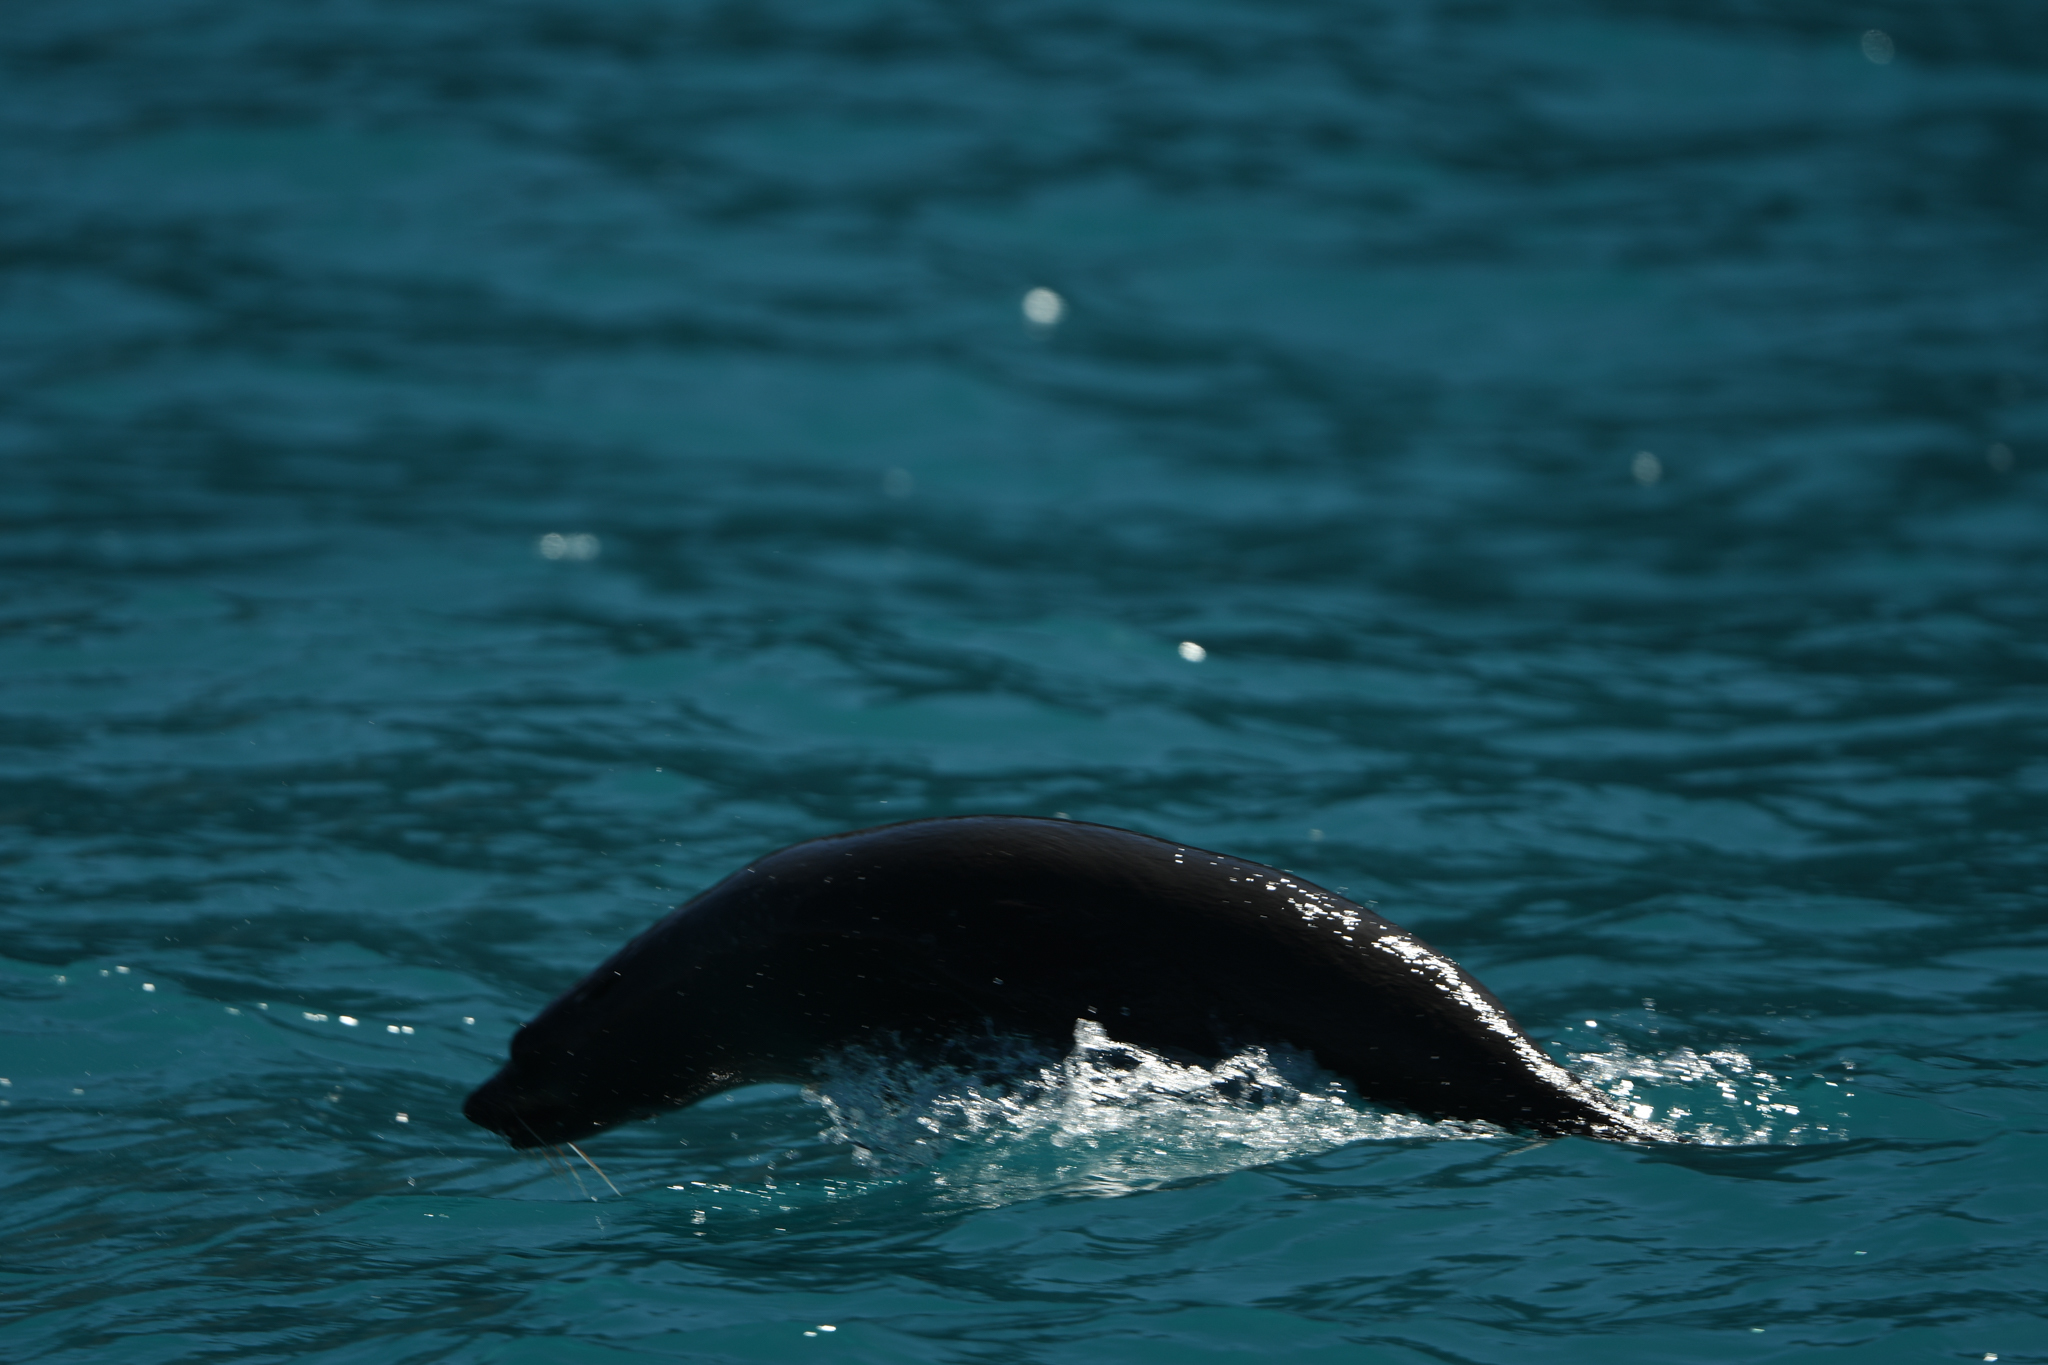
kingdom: Animalia
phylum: Chordata
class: Mammalia
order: Carnivora
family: Otariidae
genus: Arctocephalus
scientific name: Arctocephalus forsteri
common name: New zealand fur seal
